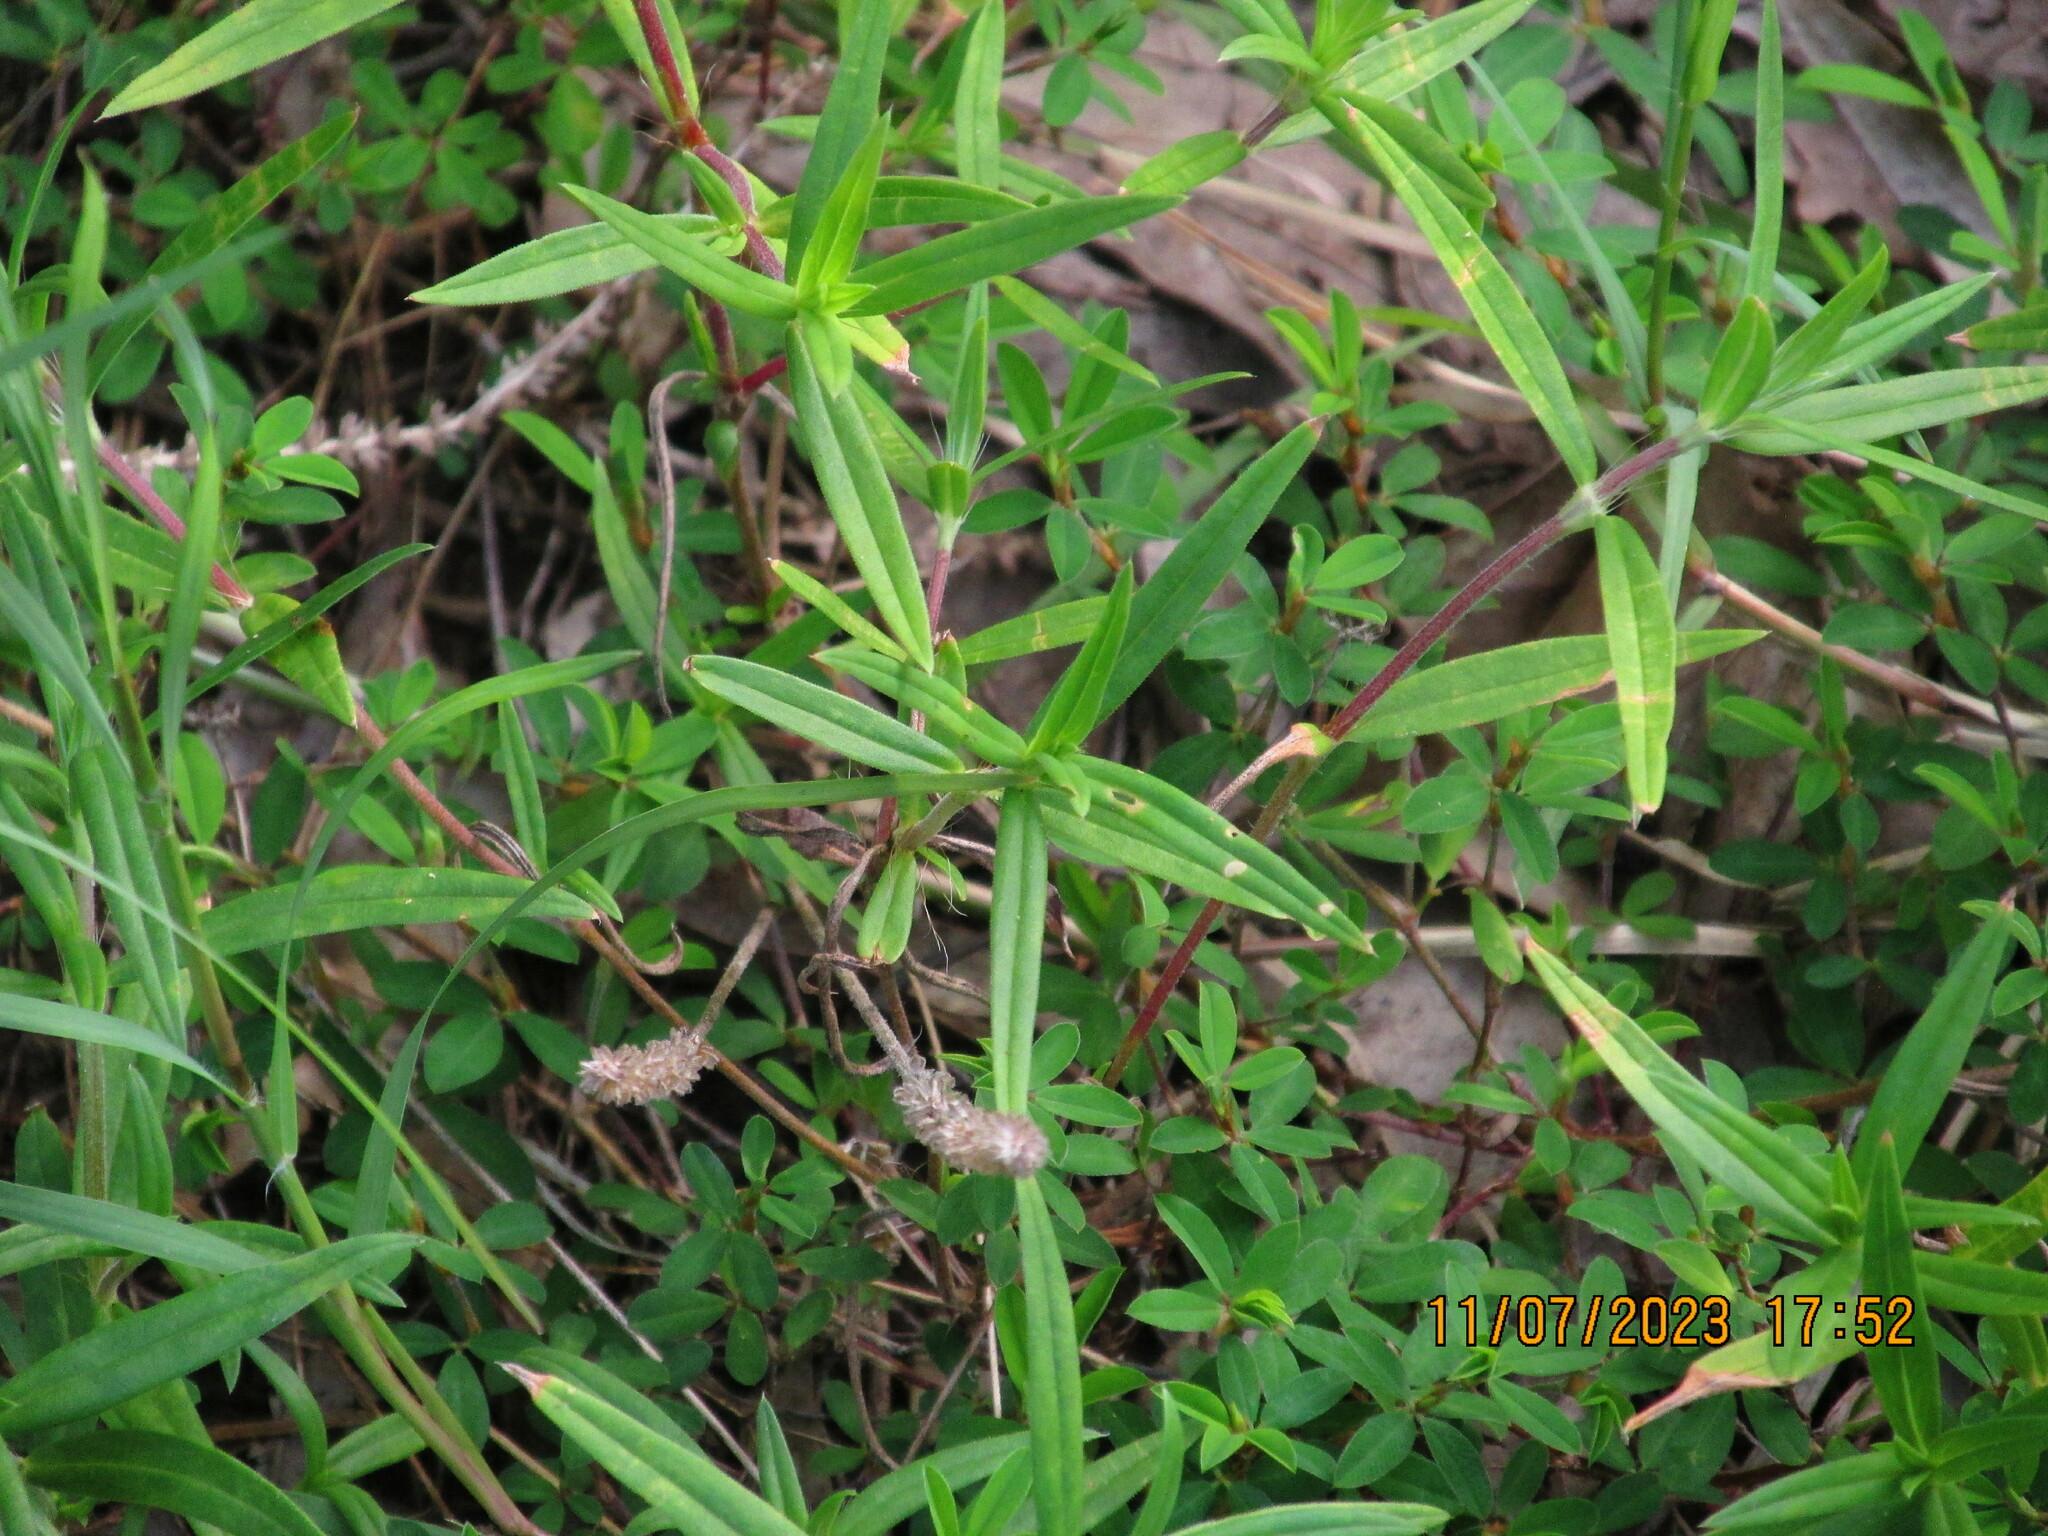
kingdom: Plantae
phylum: Tracheophyta
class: Magnoliopsida
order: Gentianales
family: Rubiaceae
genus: Hexasepalum
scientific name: Hexasepalum teres
